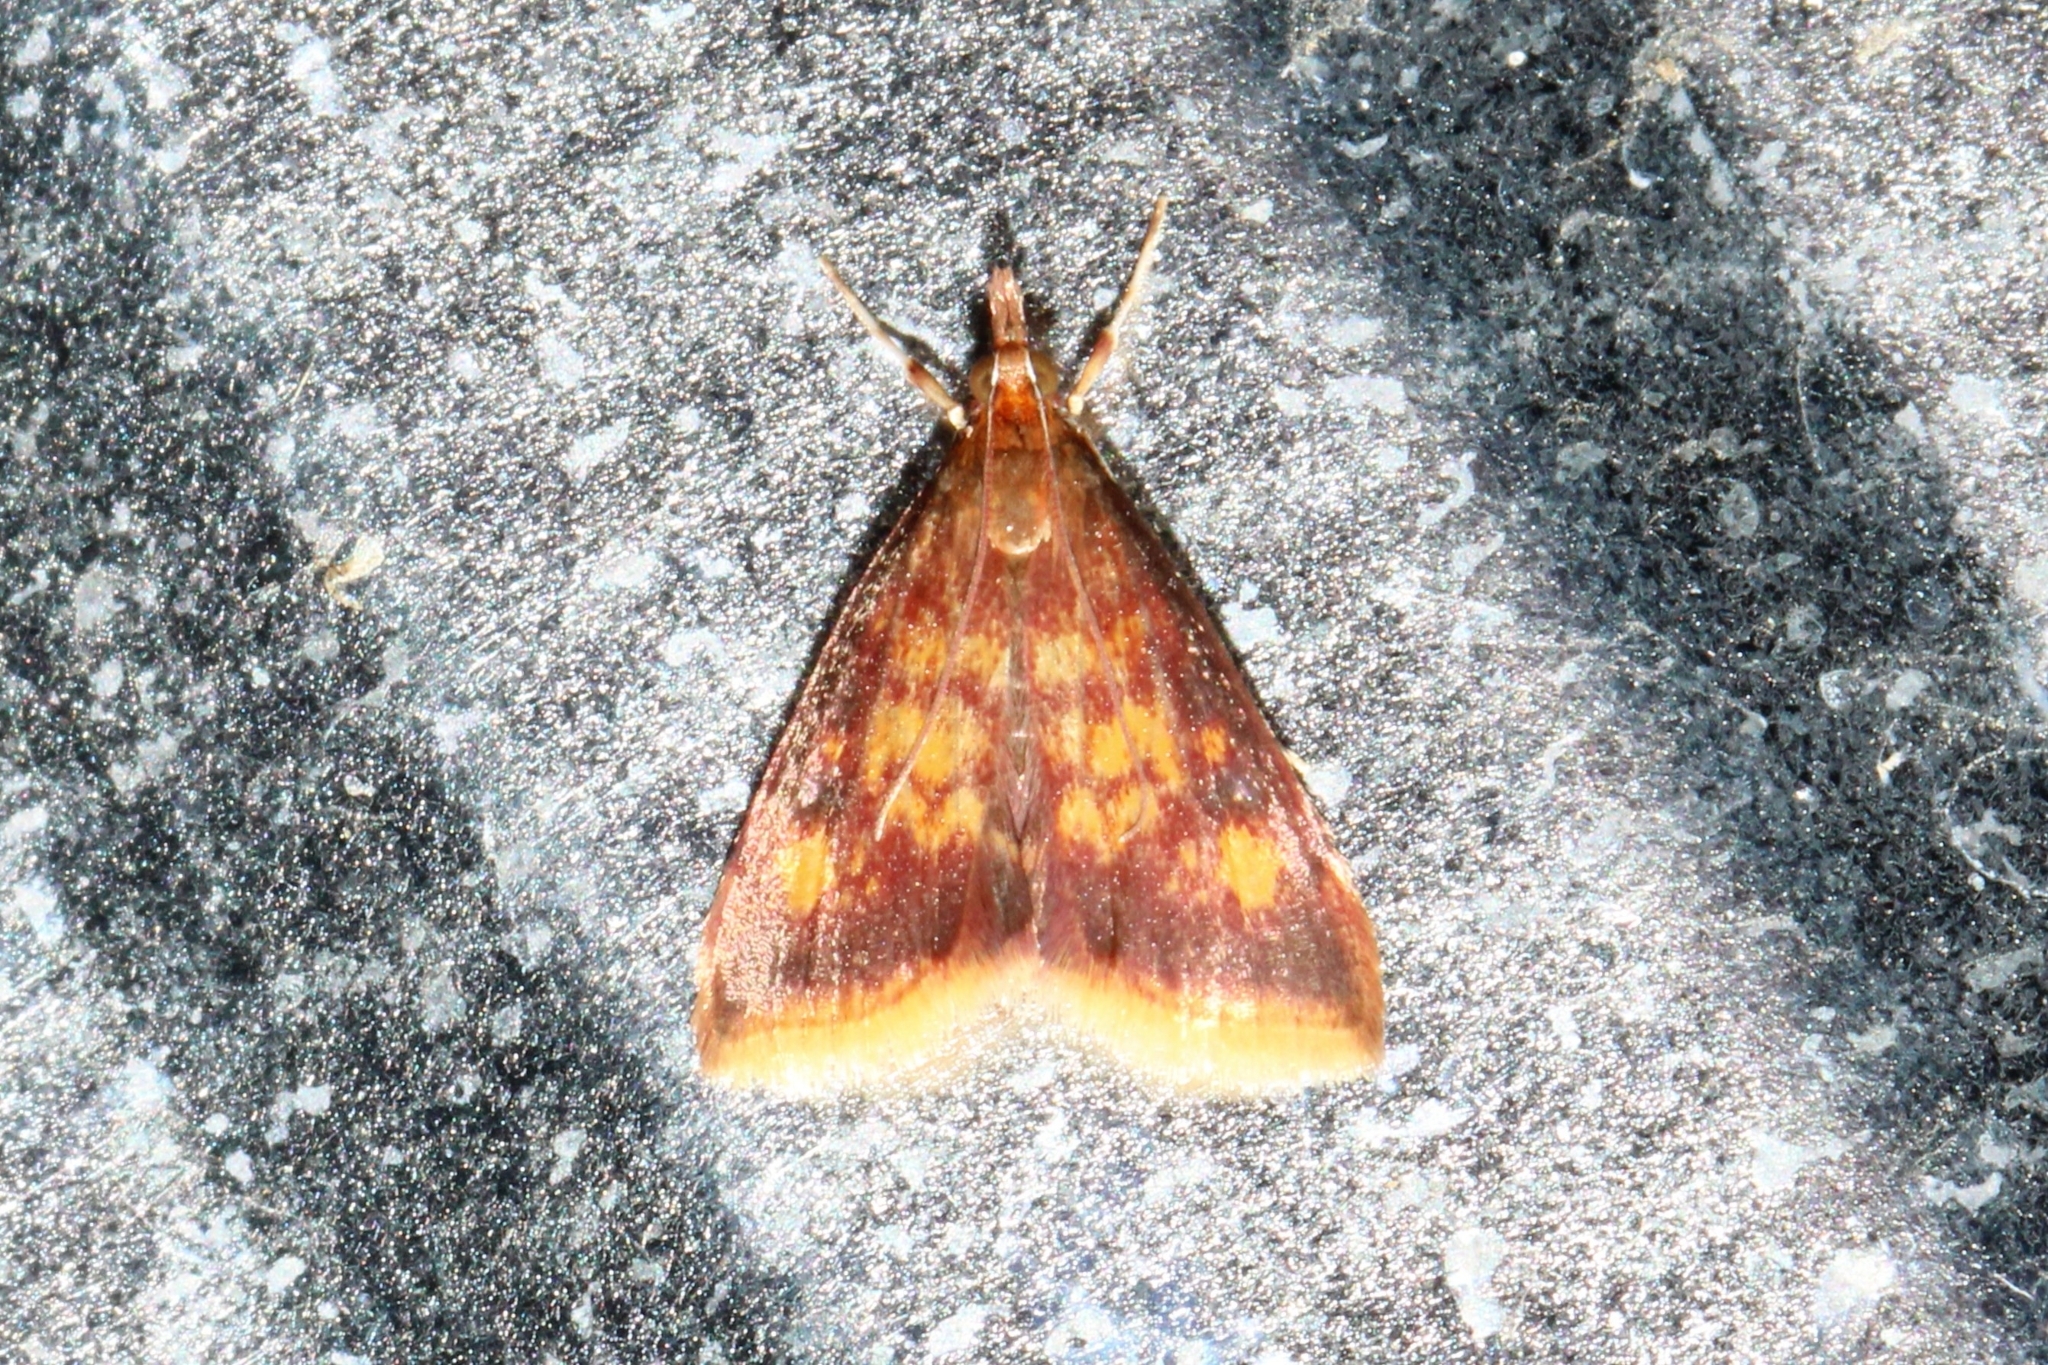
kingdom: Animalia
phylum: Arthropoda
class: Insecta
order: Lepidoptera
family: Crambidae
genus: Pyrausta
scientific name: Pyrausta acrionalis
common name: Mint-loving pyrausta moth
